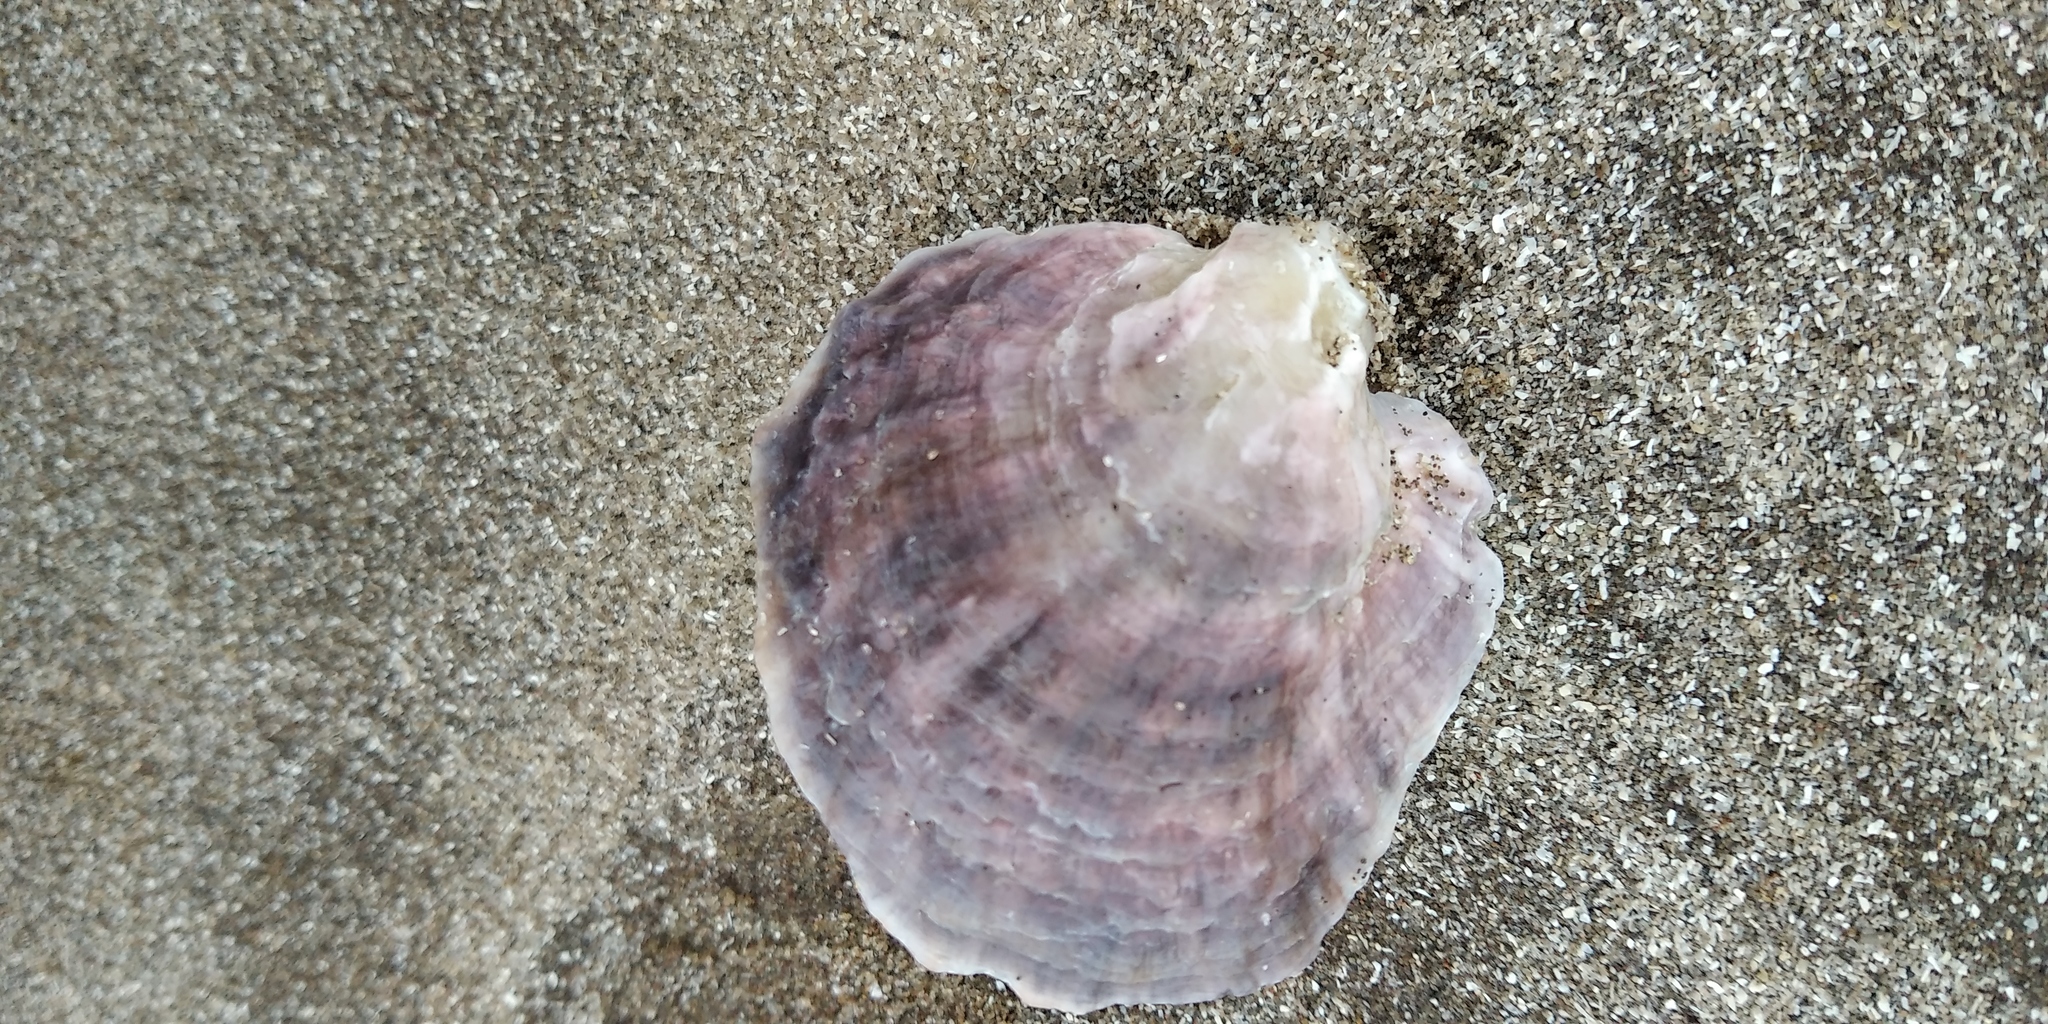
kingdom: Animalia
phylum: Mollusca
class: Bivalvia
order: Ostreida
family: Ostreidae
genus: Ostrea
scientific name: Ostrea puelchana
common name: Argentine flat oyster
